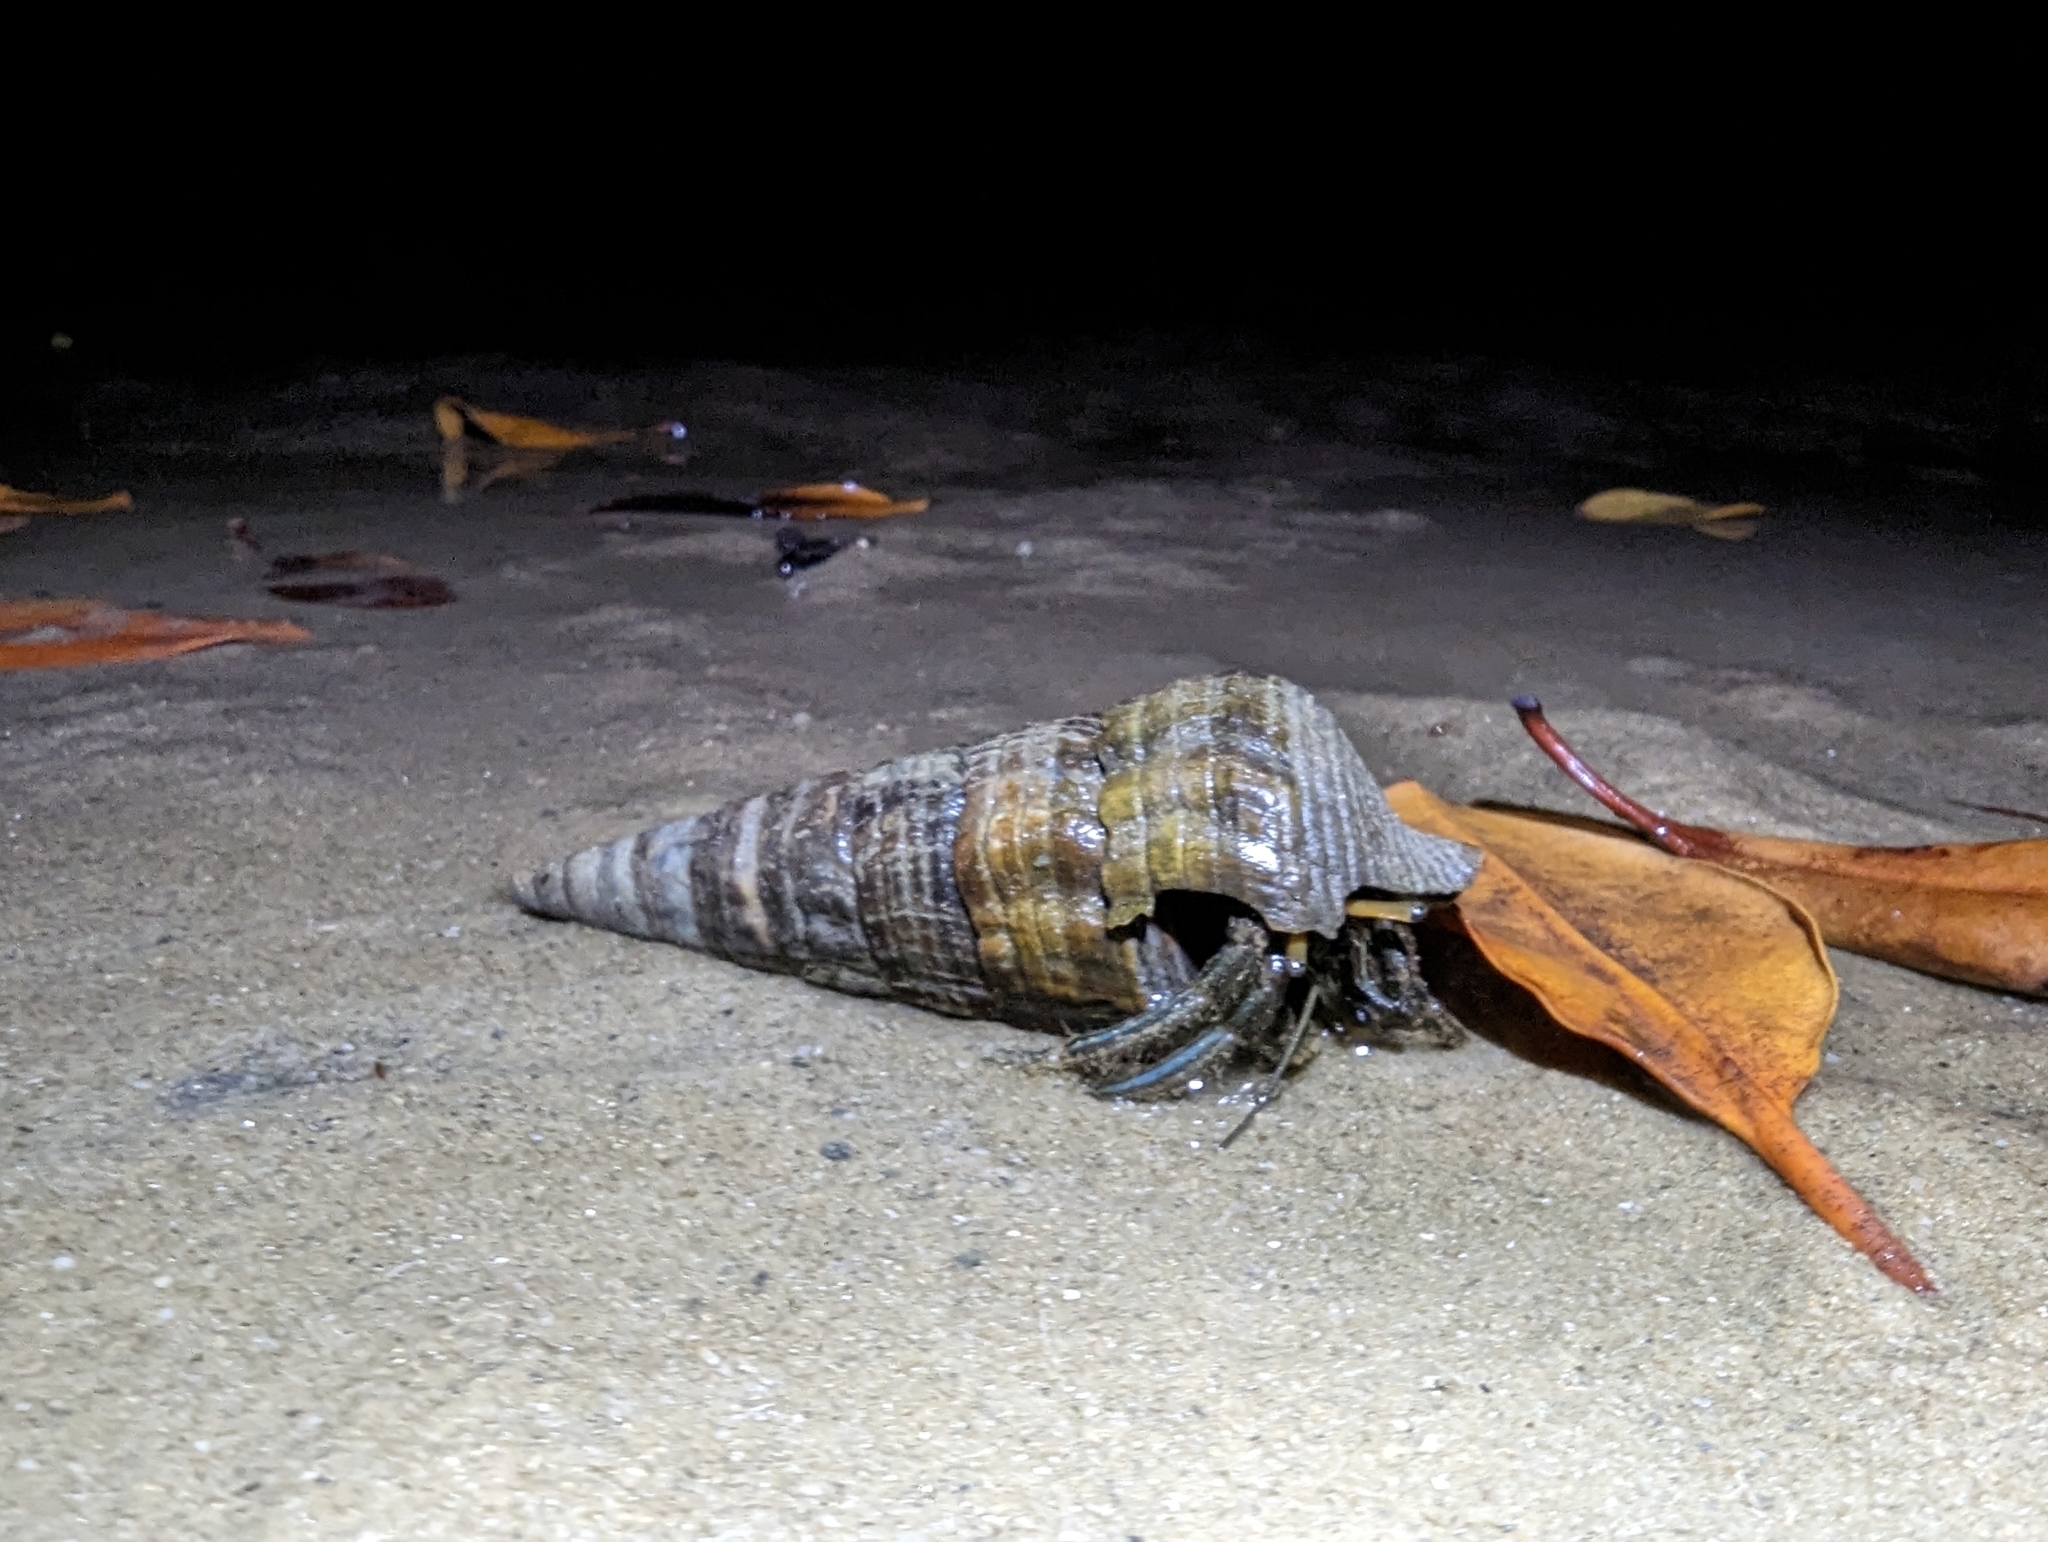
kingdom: Animalia
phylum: Arthropoda
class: Malacostraca
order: Decapoda
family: Diogenidae
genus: Clibanarius
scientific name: Clibanarius longitarsus
